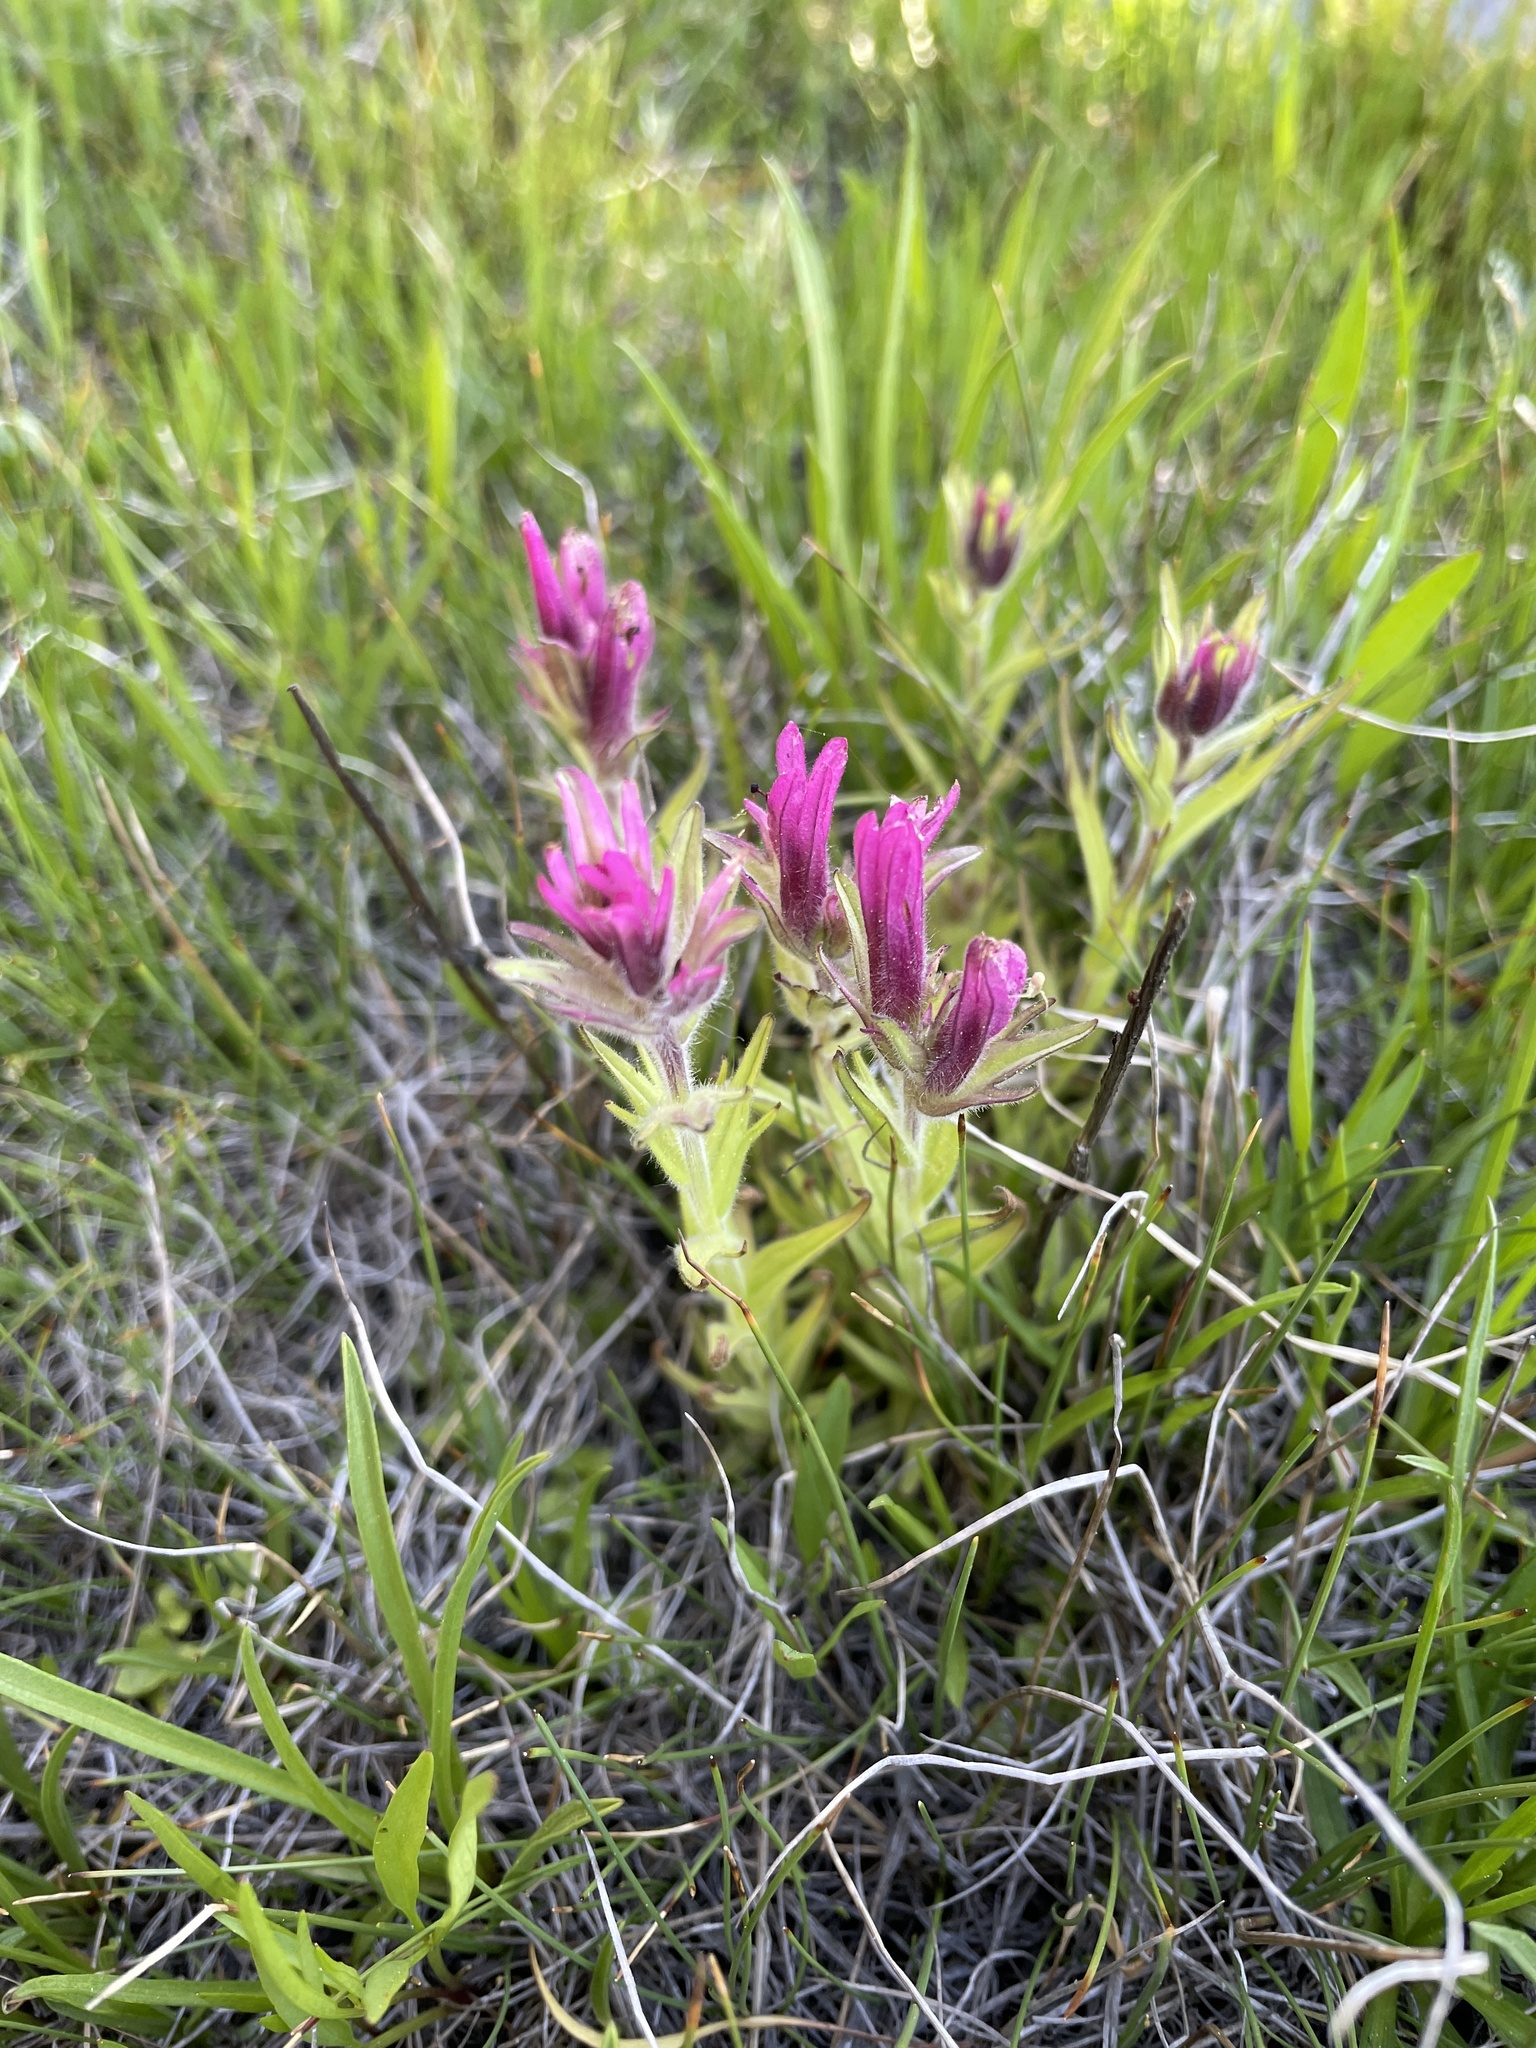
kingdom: Plantae
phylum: Tracheophyta
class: Magnoliopsida
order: Lamiales
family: Orobanchaceae
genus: Castilleja
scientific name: Castilleja lemmonii
